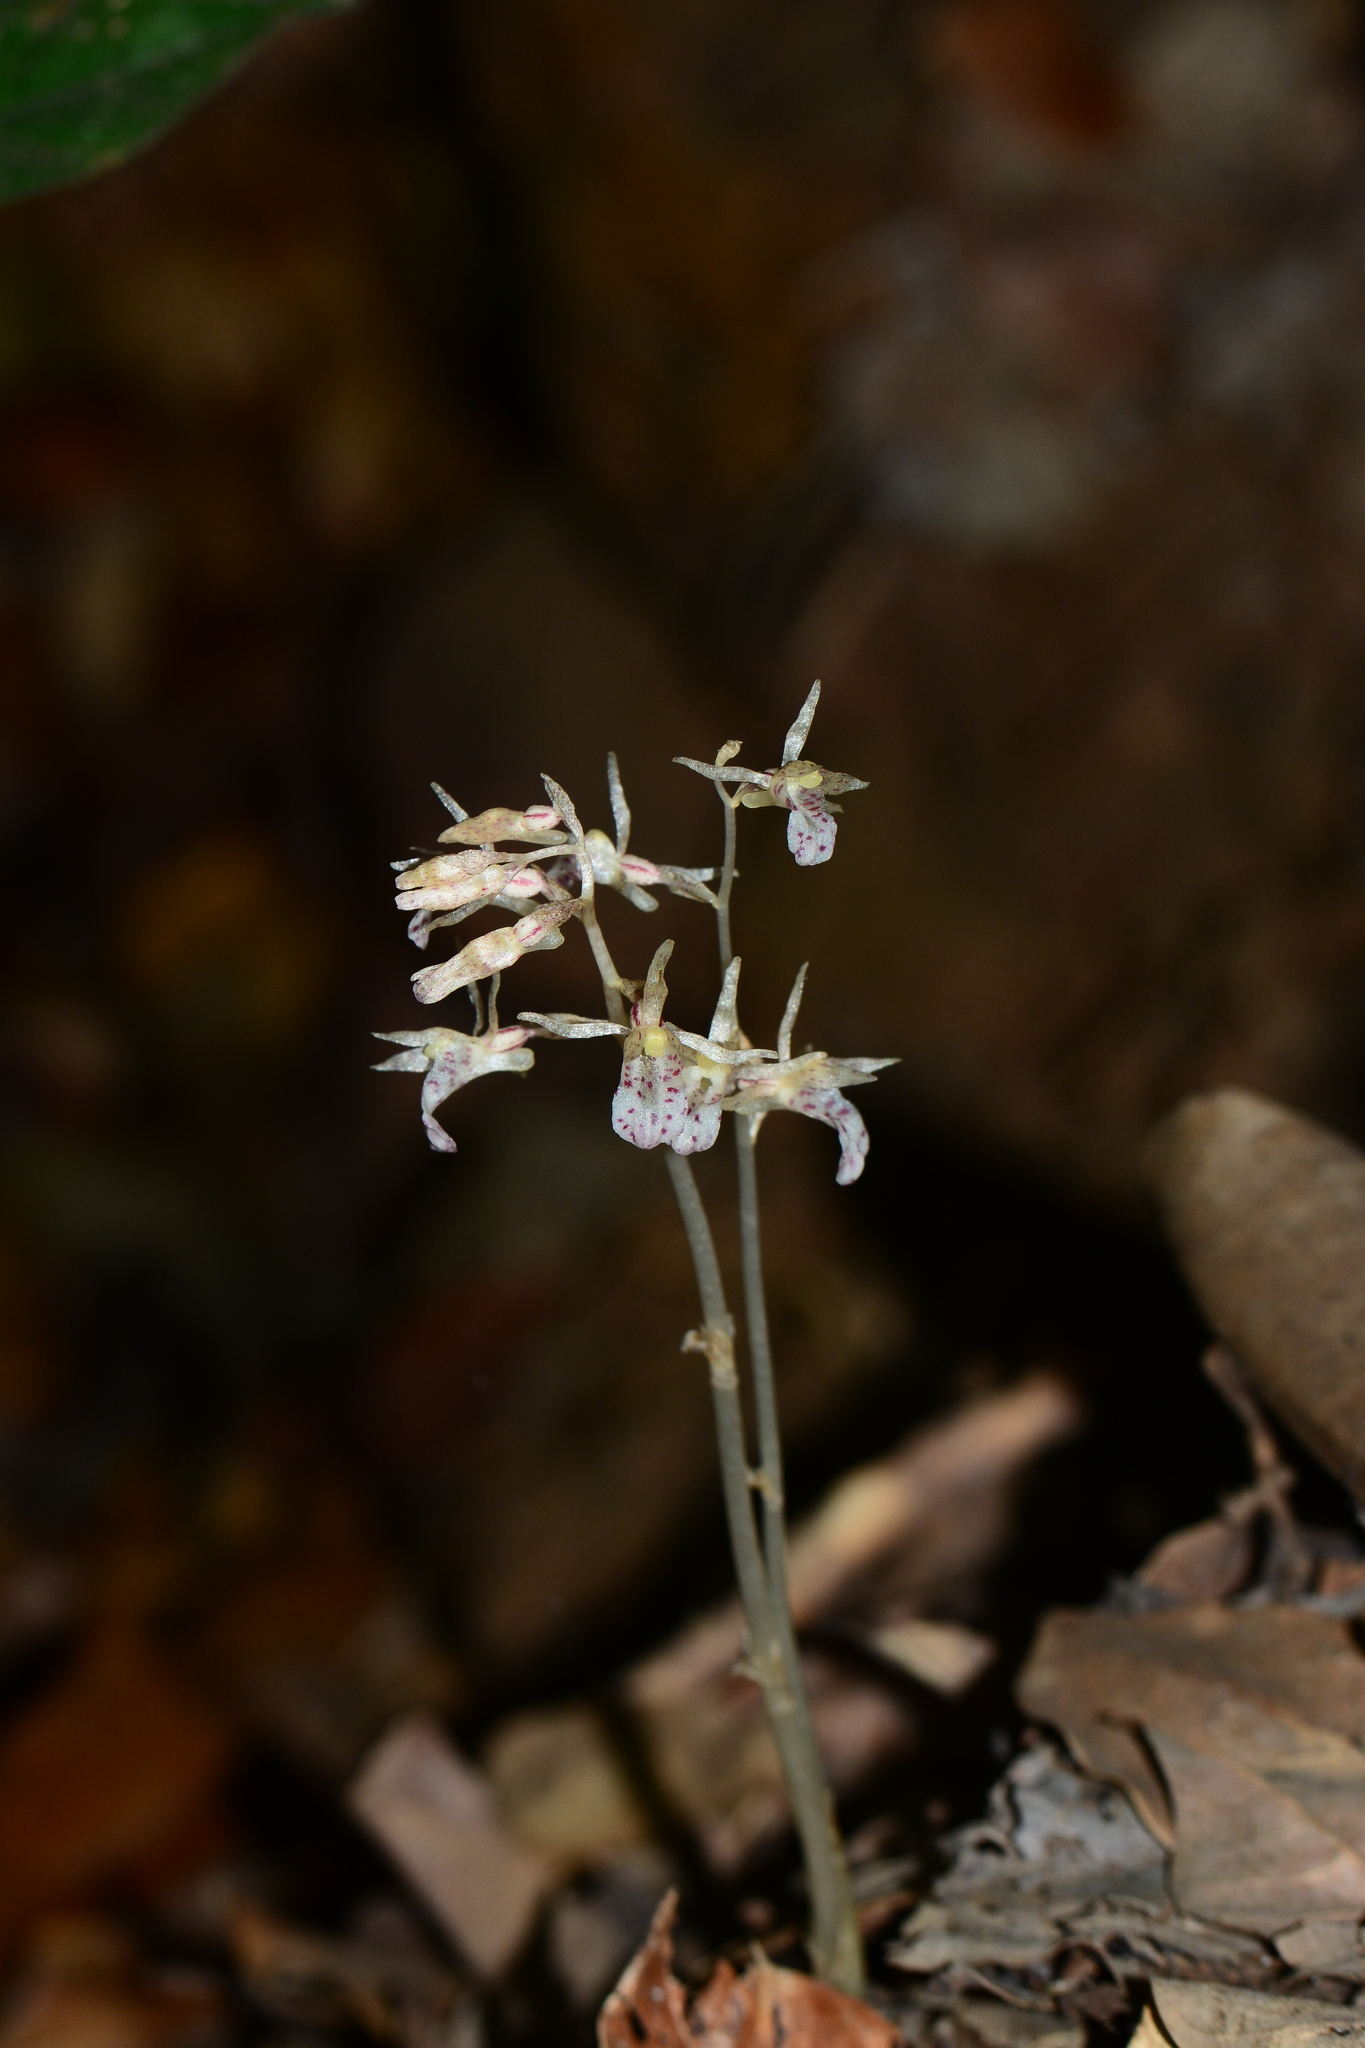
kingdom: Plantae
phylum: Tracheophyta
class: Liliopsida
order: Asparagales
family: Orchidaceae
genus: Epipogium
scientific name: Epipogium roseum
